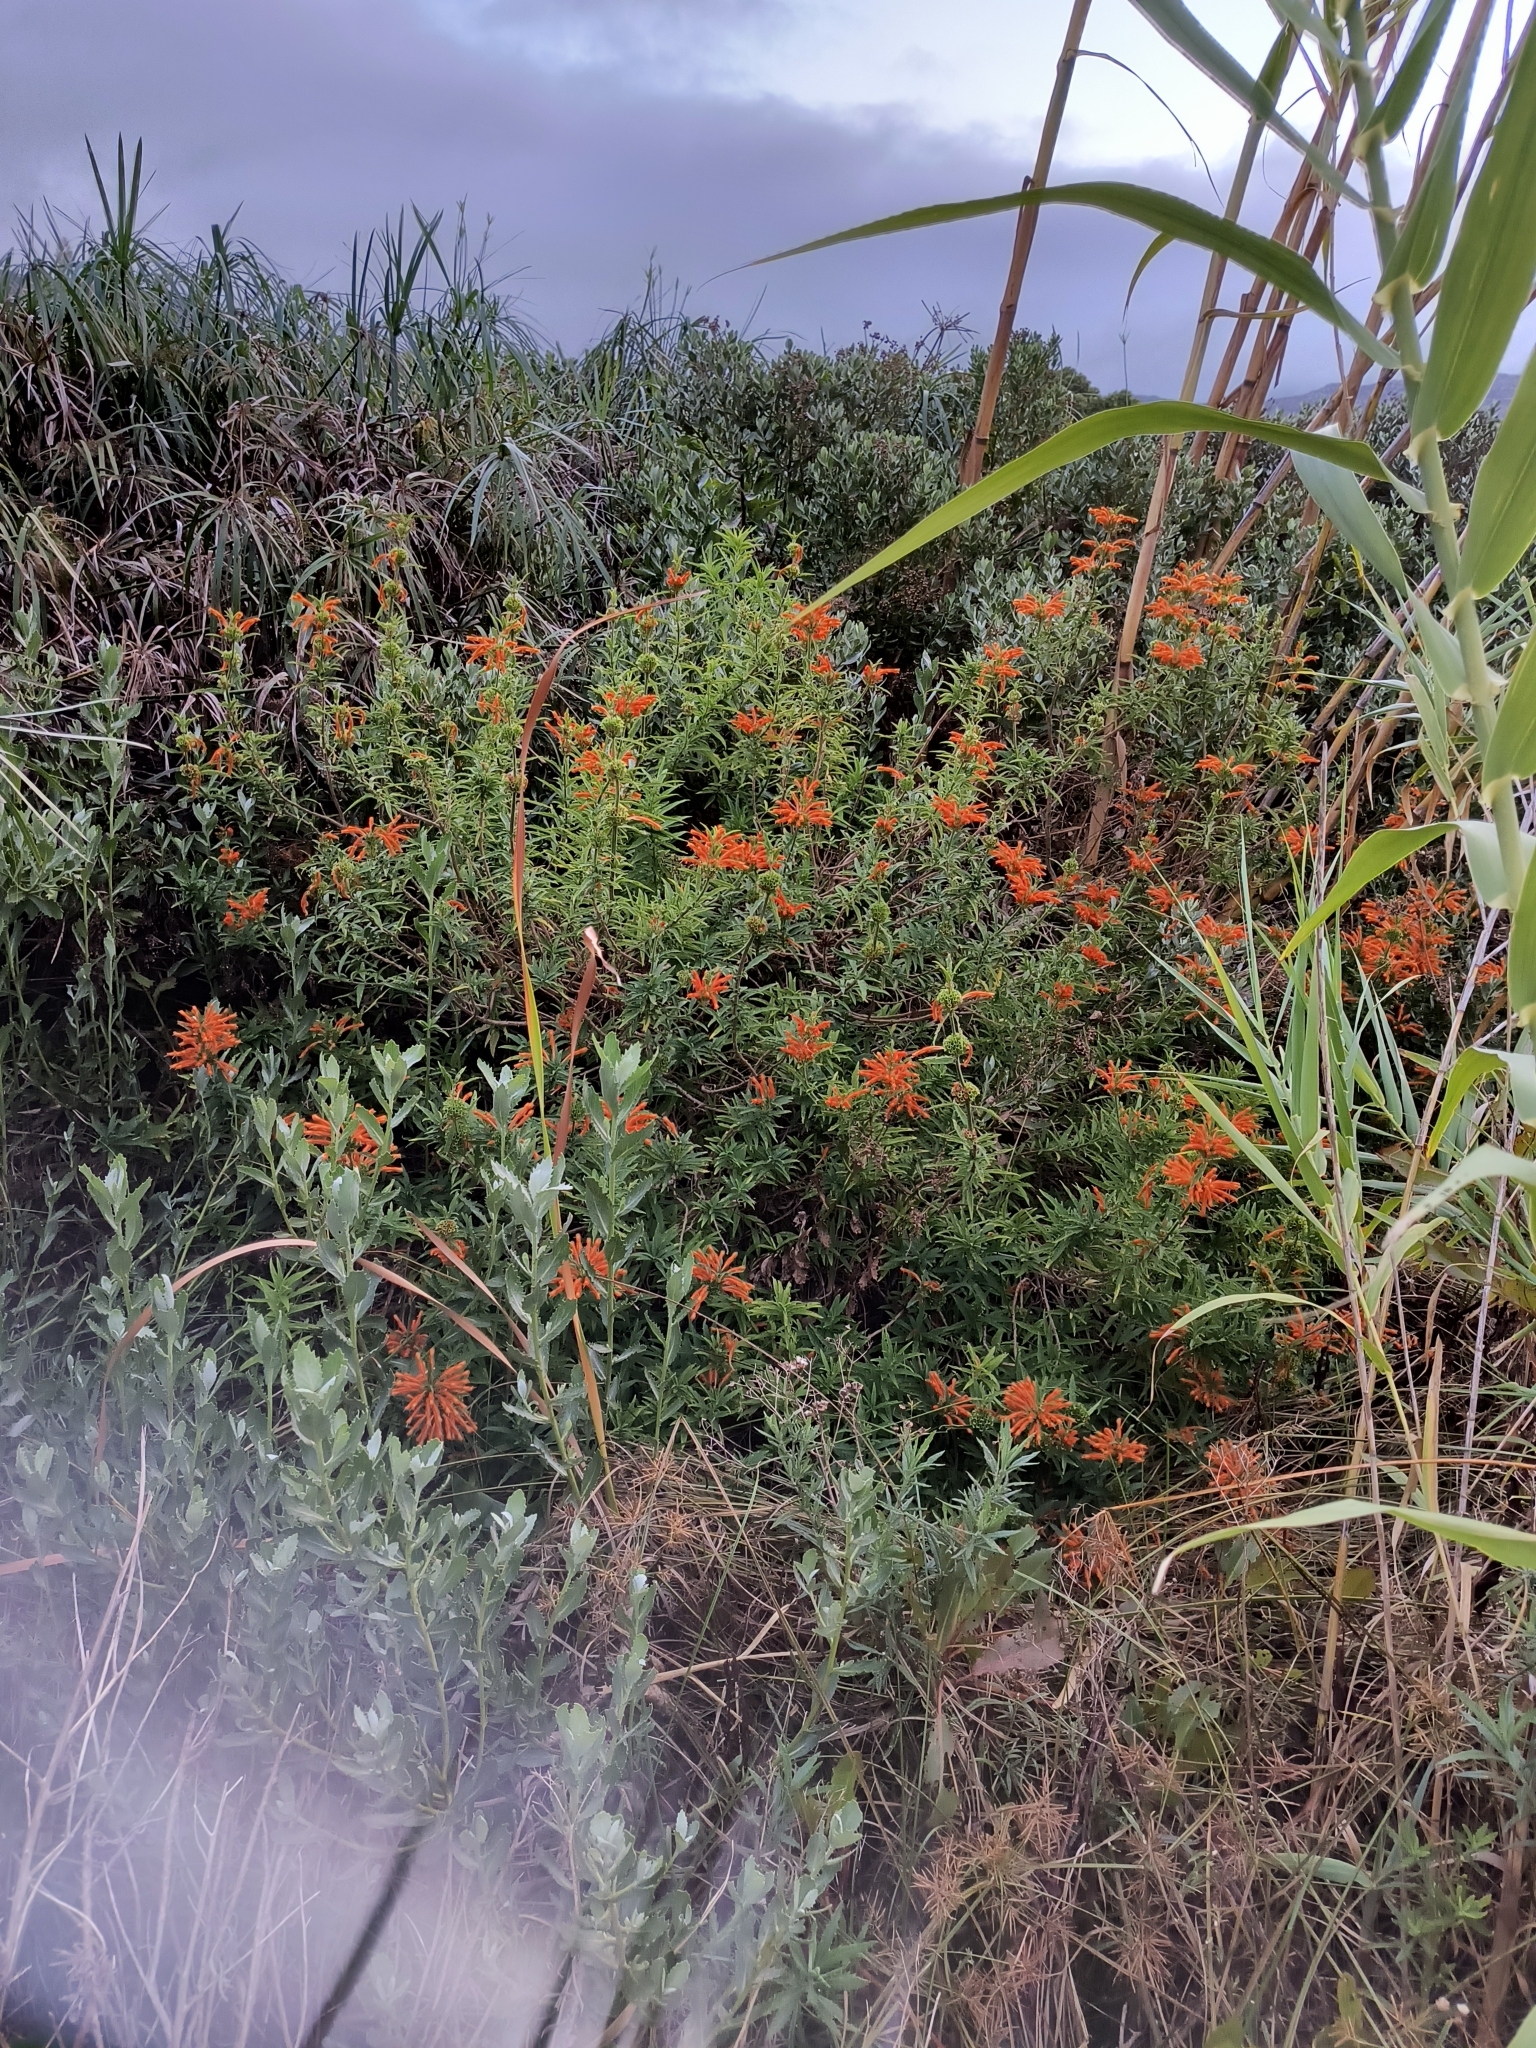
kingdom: Plantae
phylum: Tracheophyta
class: Magnoliopsida
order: Lamiales
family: Lamiaceae
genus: Leonotis
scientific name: Leonotis leonurus
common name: Lion's ear
